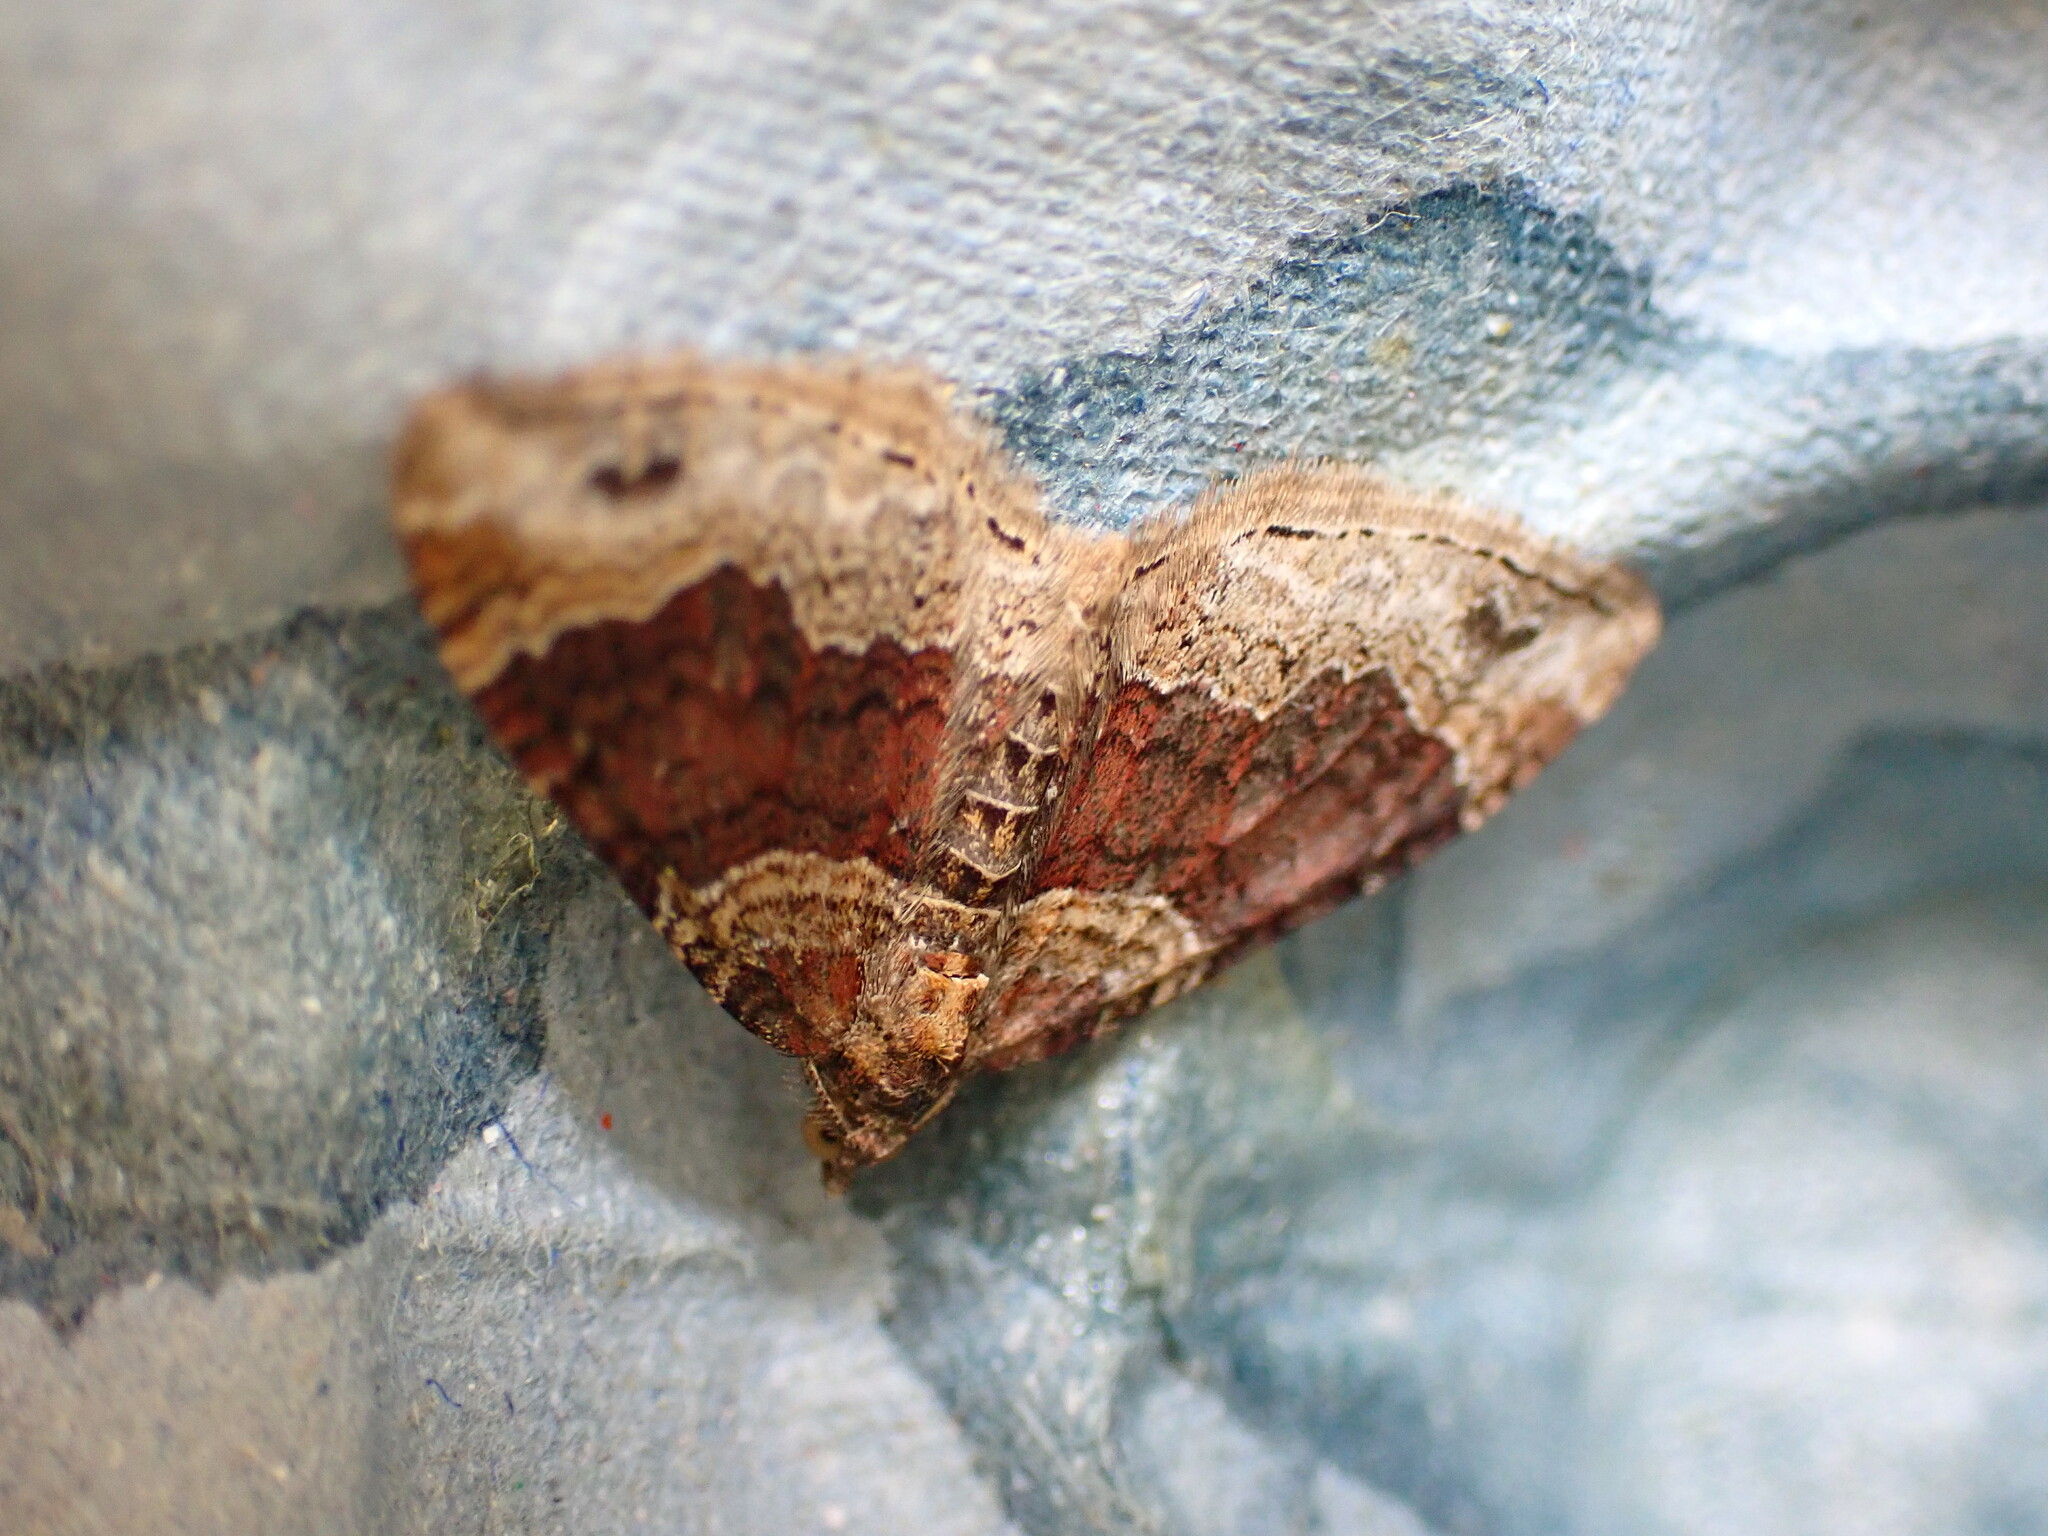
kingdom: Animalia
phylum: Arthropoda
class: Insecta
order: Lepidoptera
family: Geometridae
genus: Xanthorhoe
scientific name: Xanthorhoe spadicearia
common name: Red twin-spot carpet
